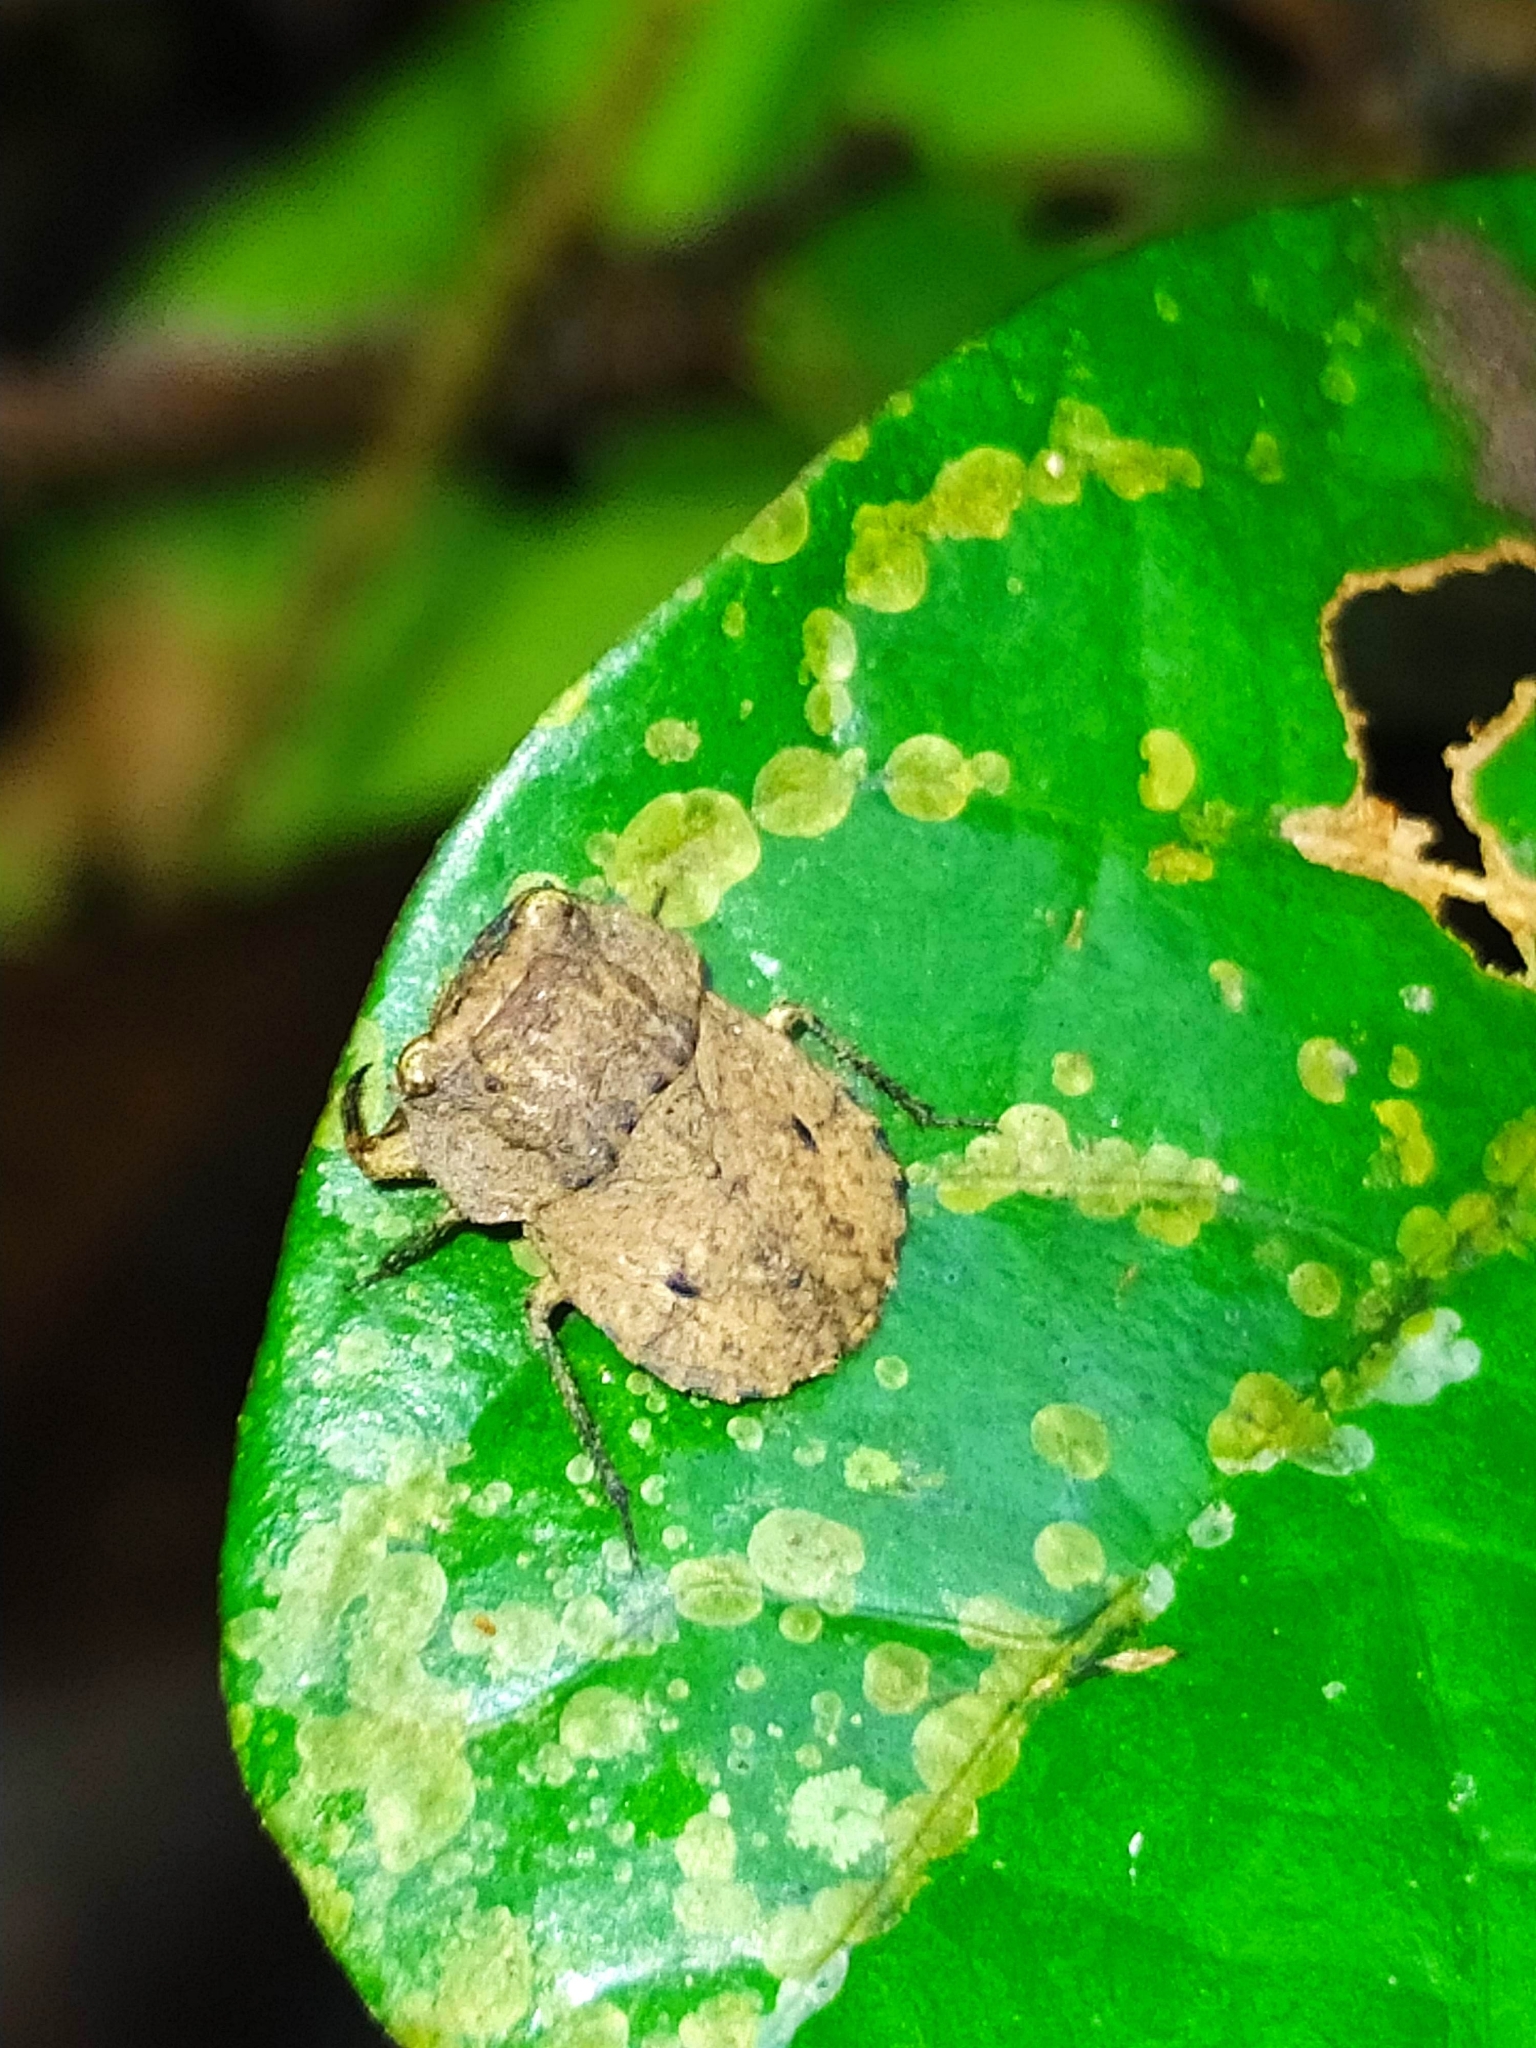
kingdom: Animalia
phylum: Arthropoda
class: Insecta
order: Hemiptera
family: Gelastocoridae
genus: Nerthra
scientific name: Nerthra
